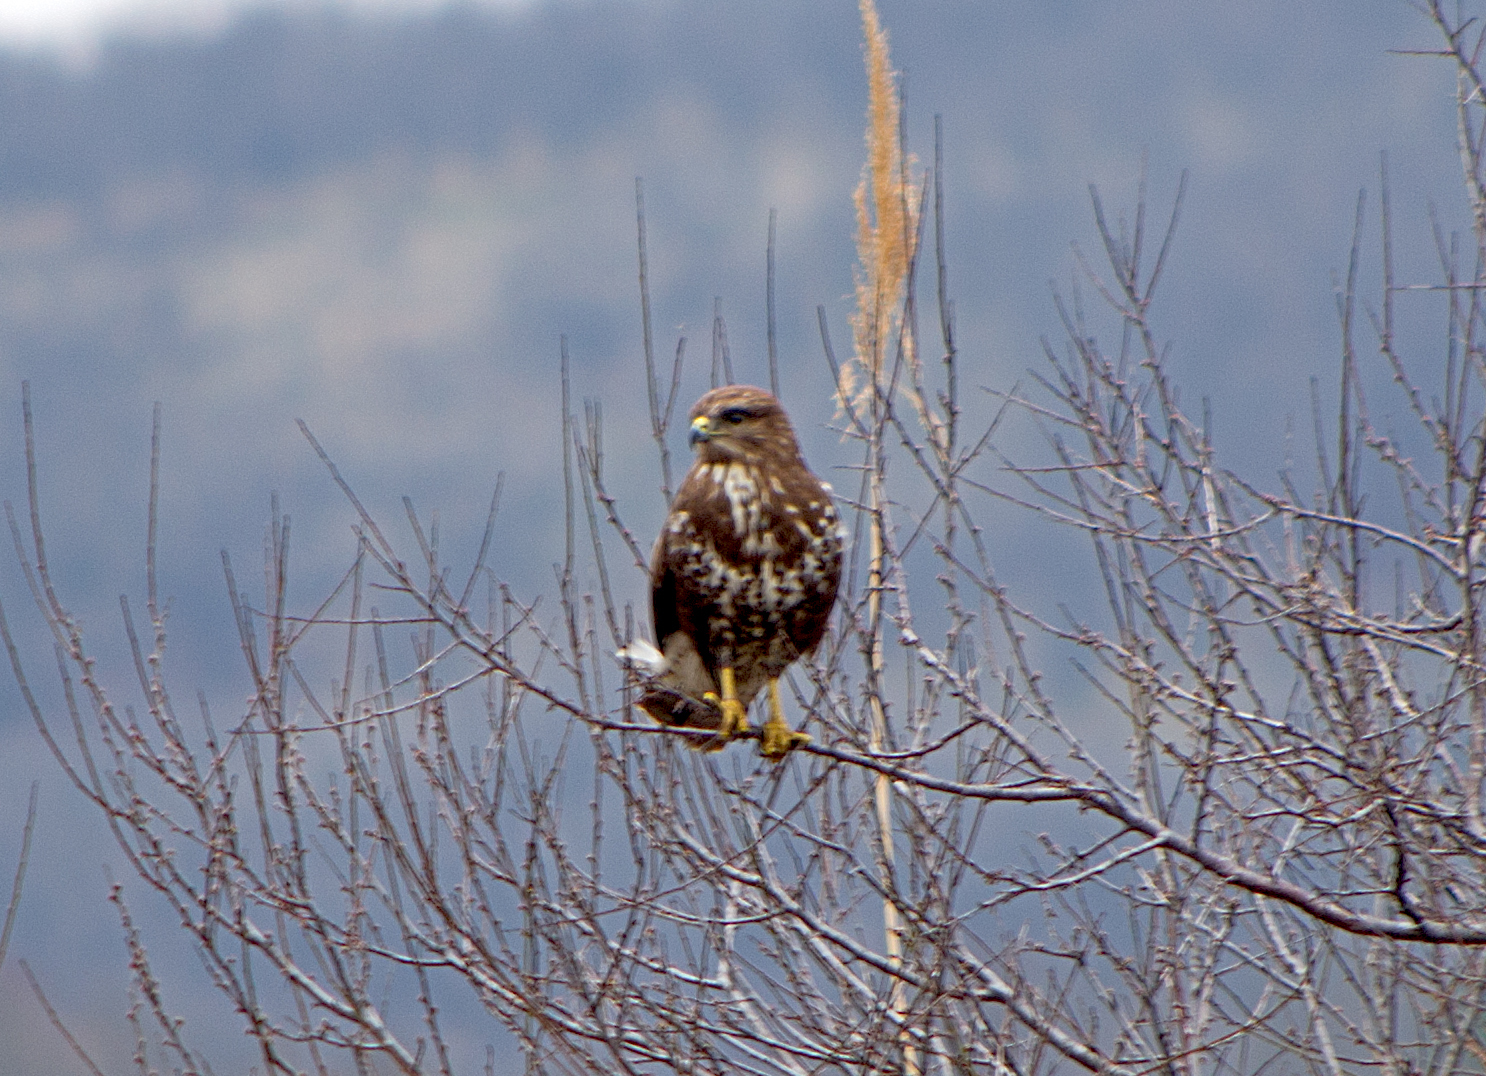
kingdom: Animalia
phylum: Chordata
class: Aves
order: Accipitriformes
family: Accipitridae
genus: Buteo
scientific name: Buteo buteo
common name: Common buzzard
